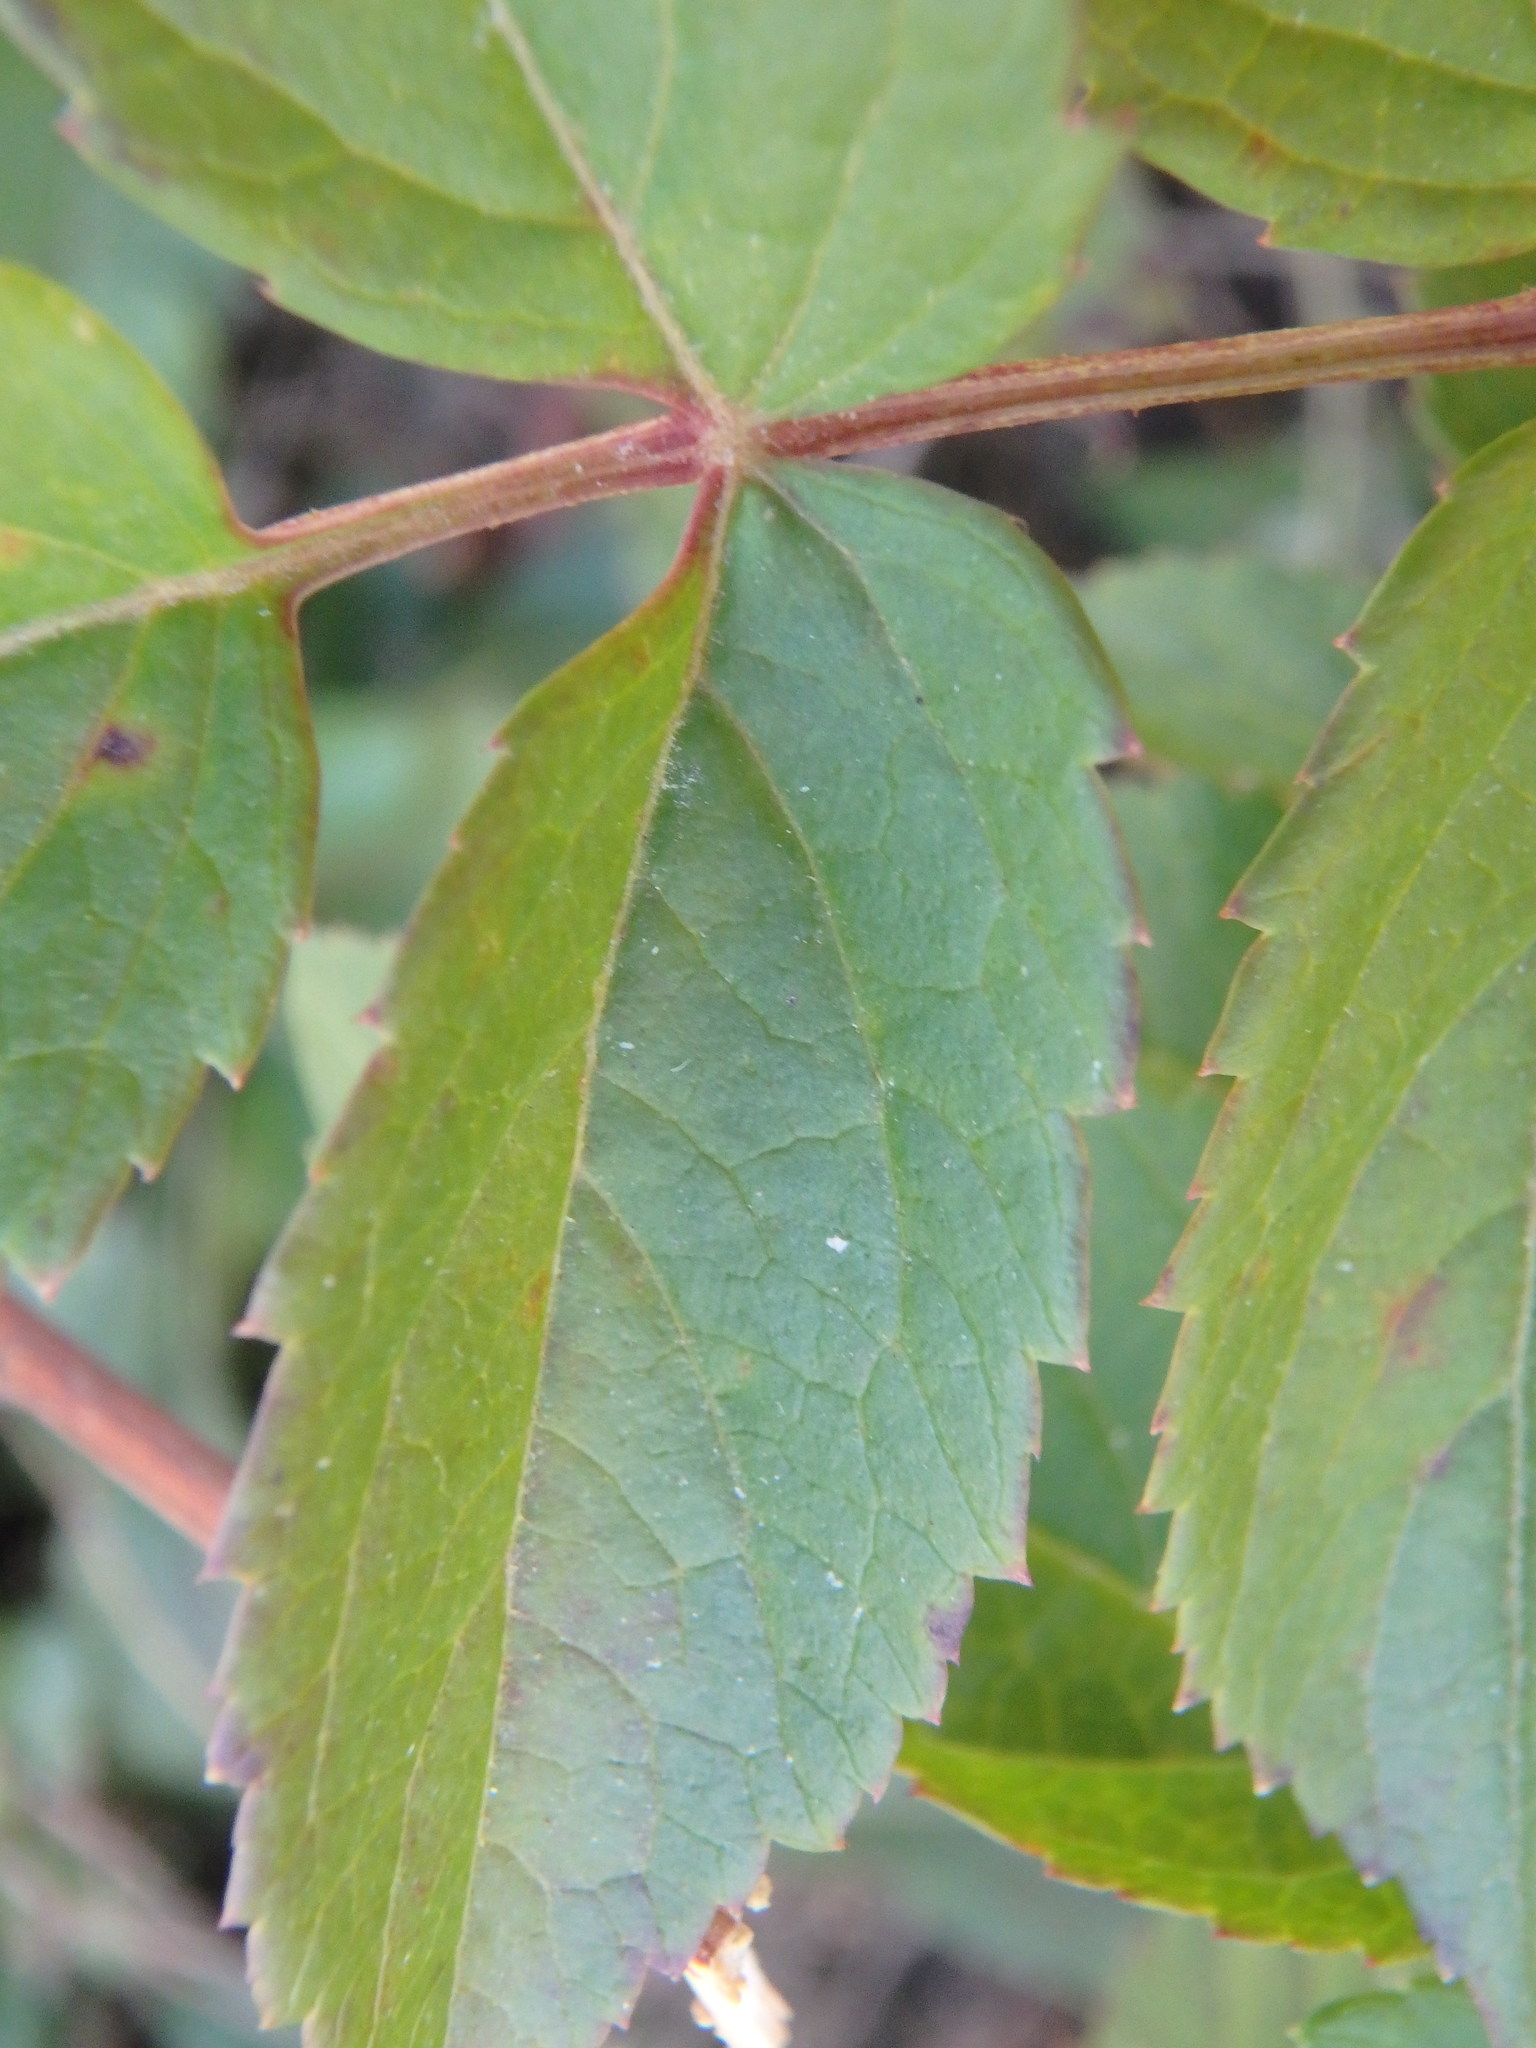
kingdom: Plantae
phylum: Tracheophyta
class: Magnoliopsida
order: Apiales
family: Araliaceae
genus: Aralia
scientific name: Aralia hispida
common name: Bristly sarsaparilla
